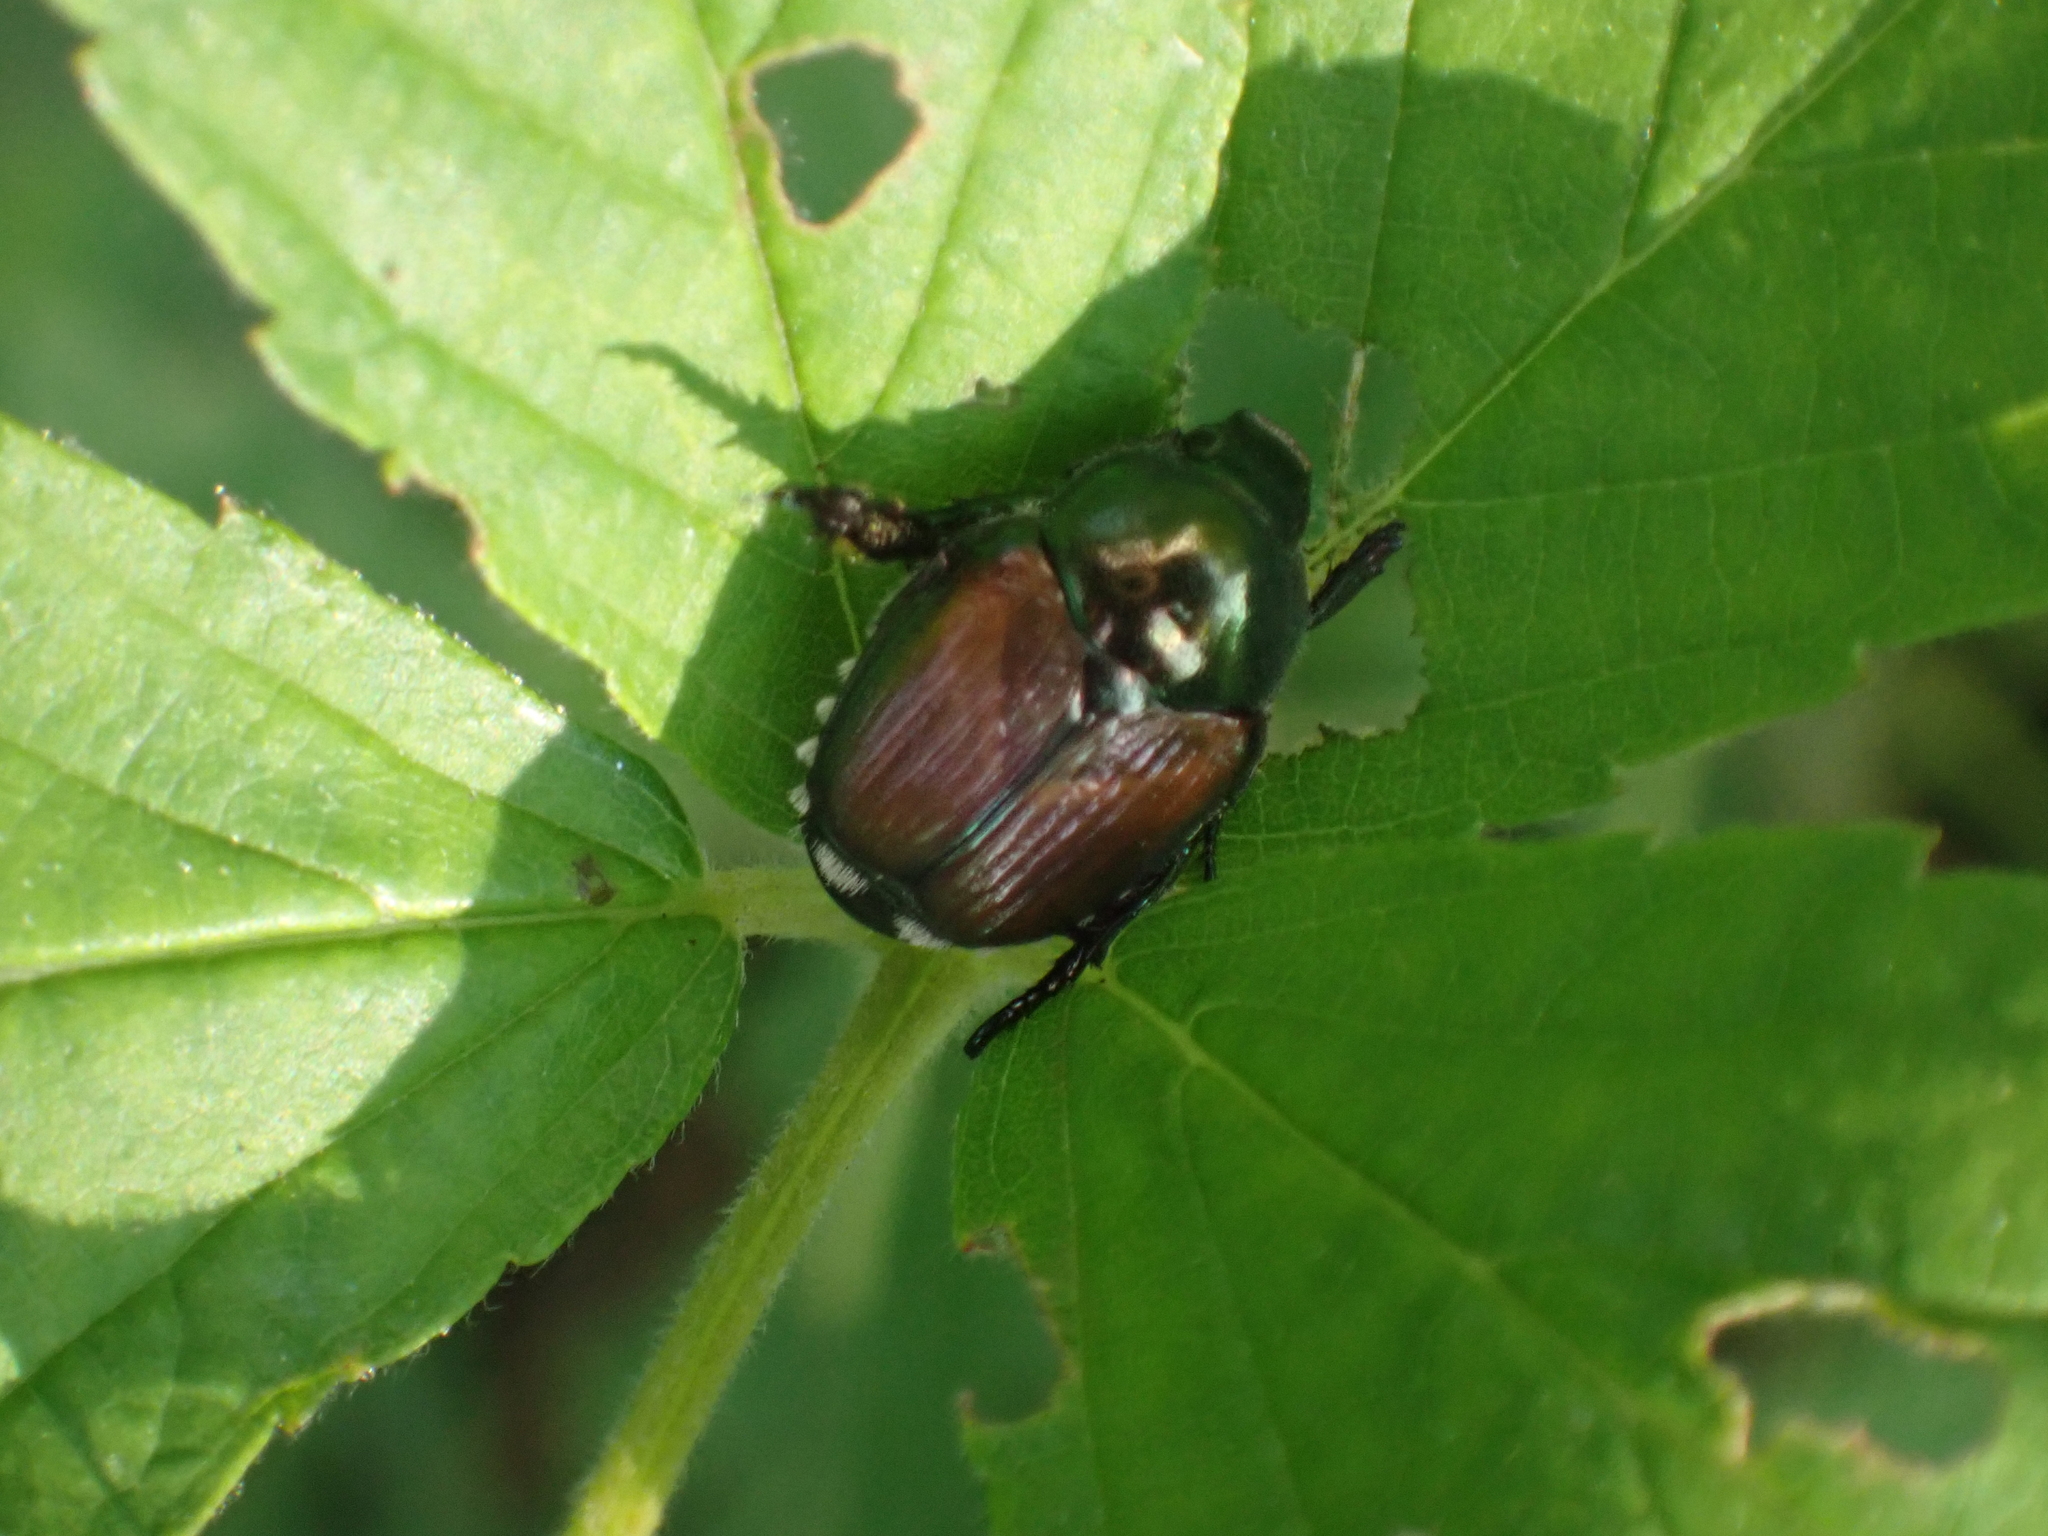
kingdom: Animalia
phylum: Arthropoda
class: Insecta
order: Coleoptera
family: Scarabaeidae
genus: Popillia
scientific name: Popillia japonica
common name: Japanese beetle
